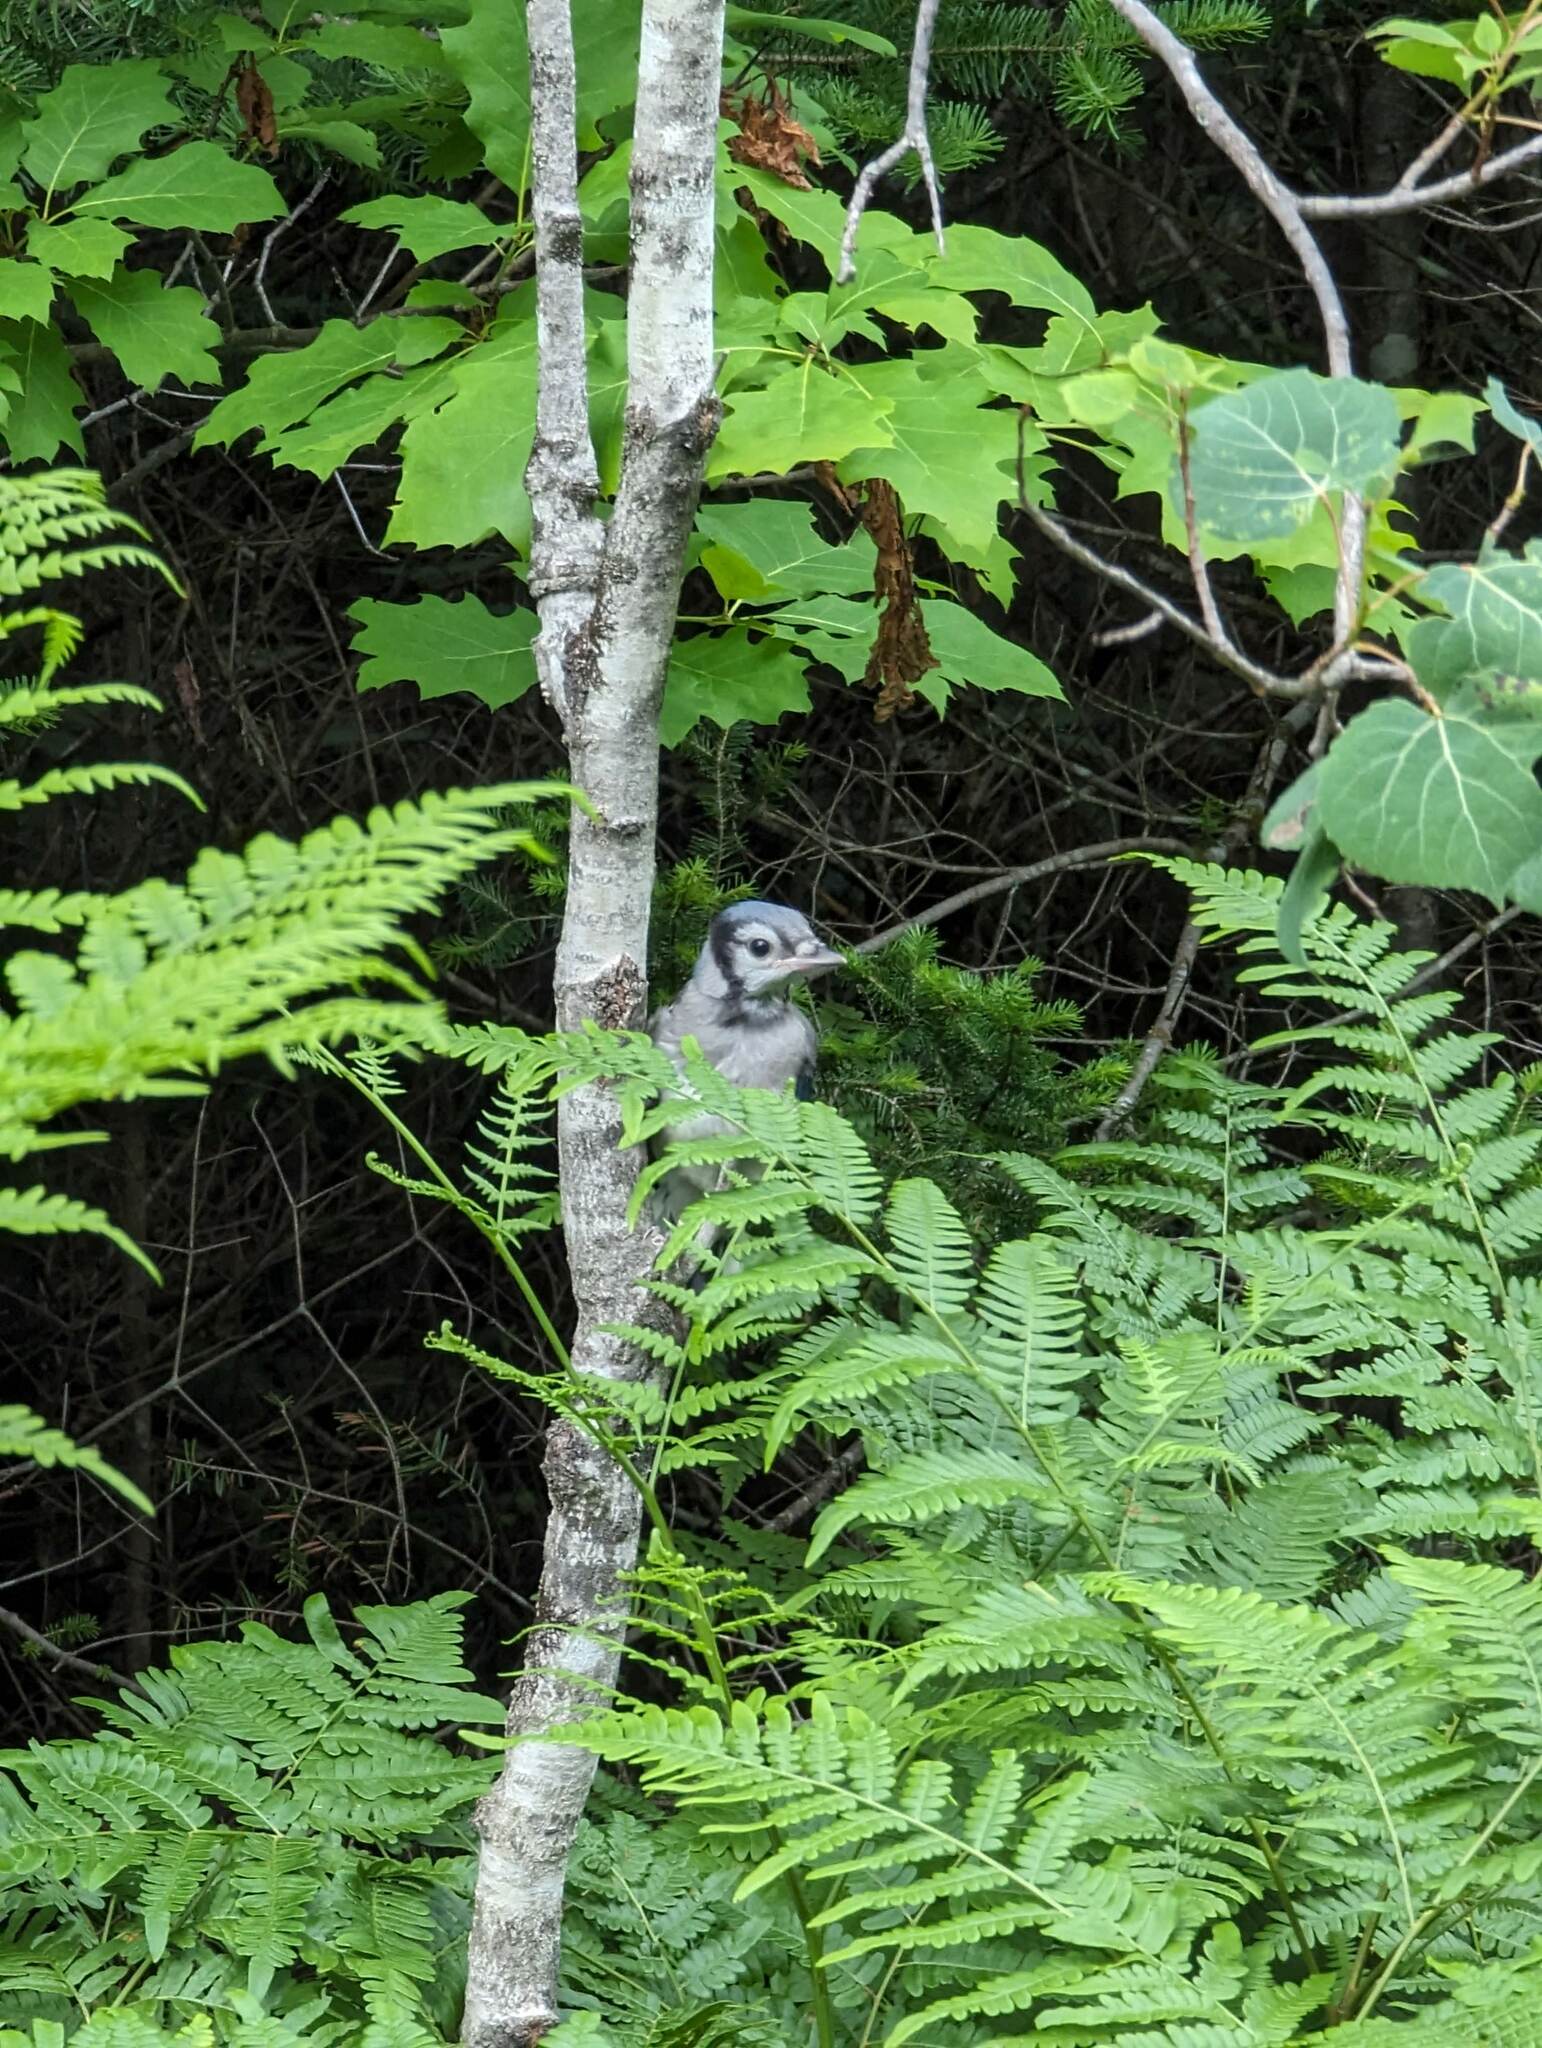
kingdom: Animalia
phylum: Chordata
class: Aves
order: Passeriformes
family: Corvidae
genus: Cyanocitta
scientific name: Cyanocitta cristata
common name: Blue jay
